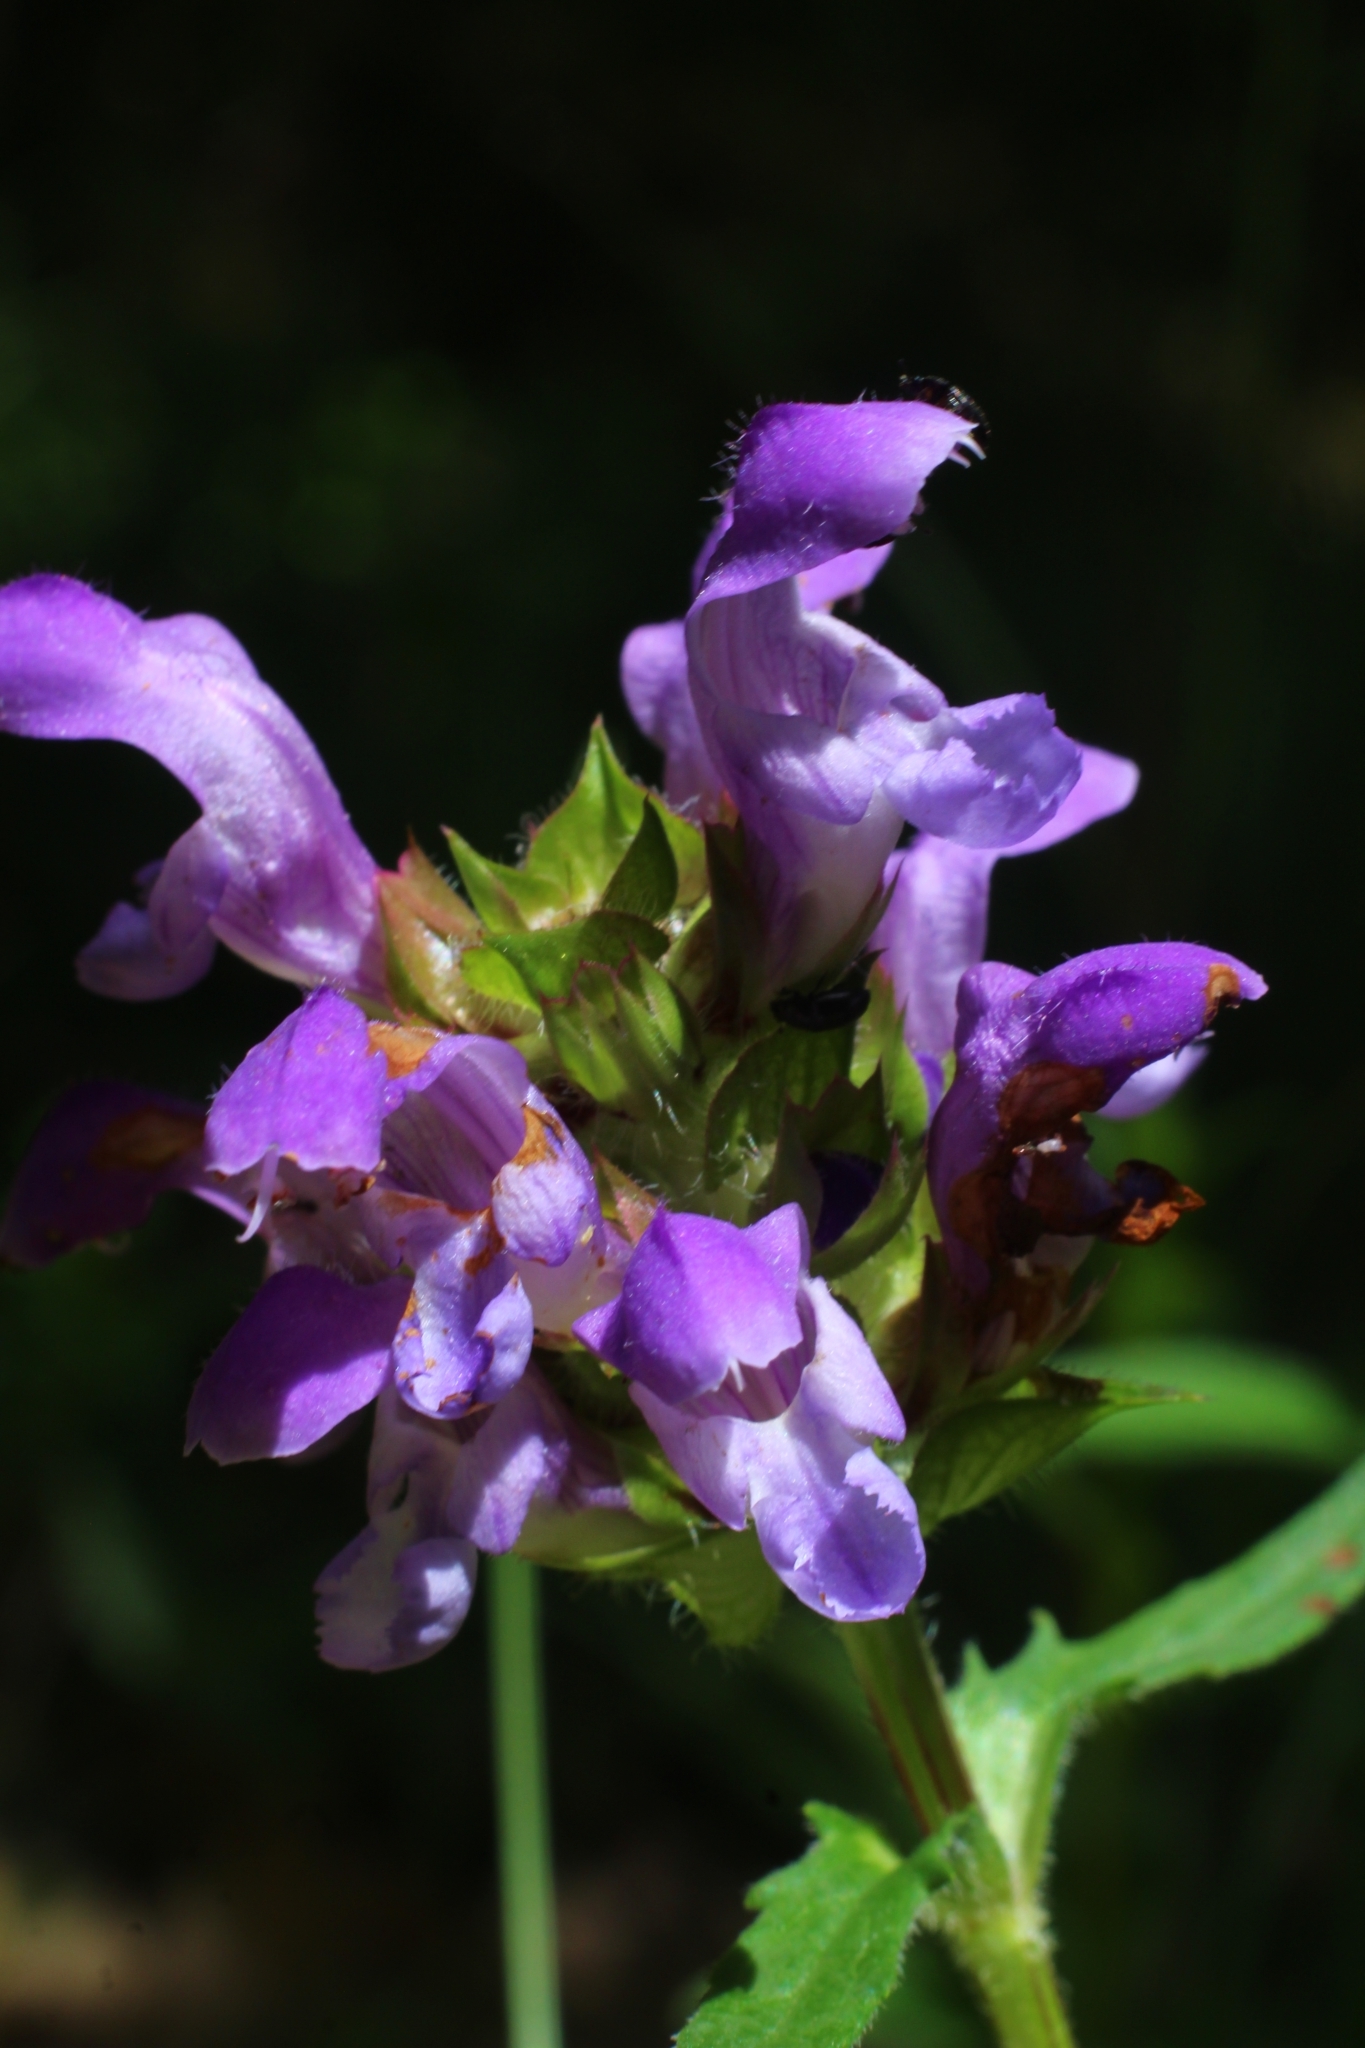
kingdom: Plantae
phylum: Tracheophyta
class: Magnoliopsida
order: Lamiales
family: Lamiaceae
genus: Prunella
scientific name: Prunella vulgaris
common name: Heal-all
